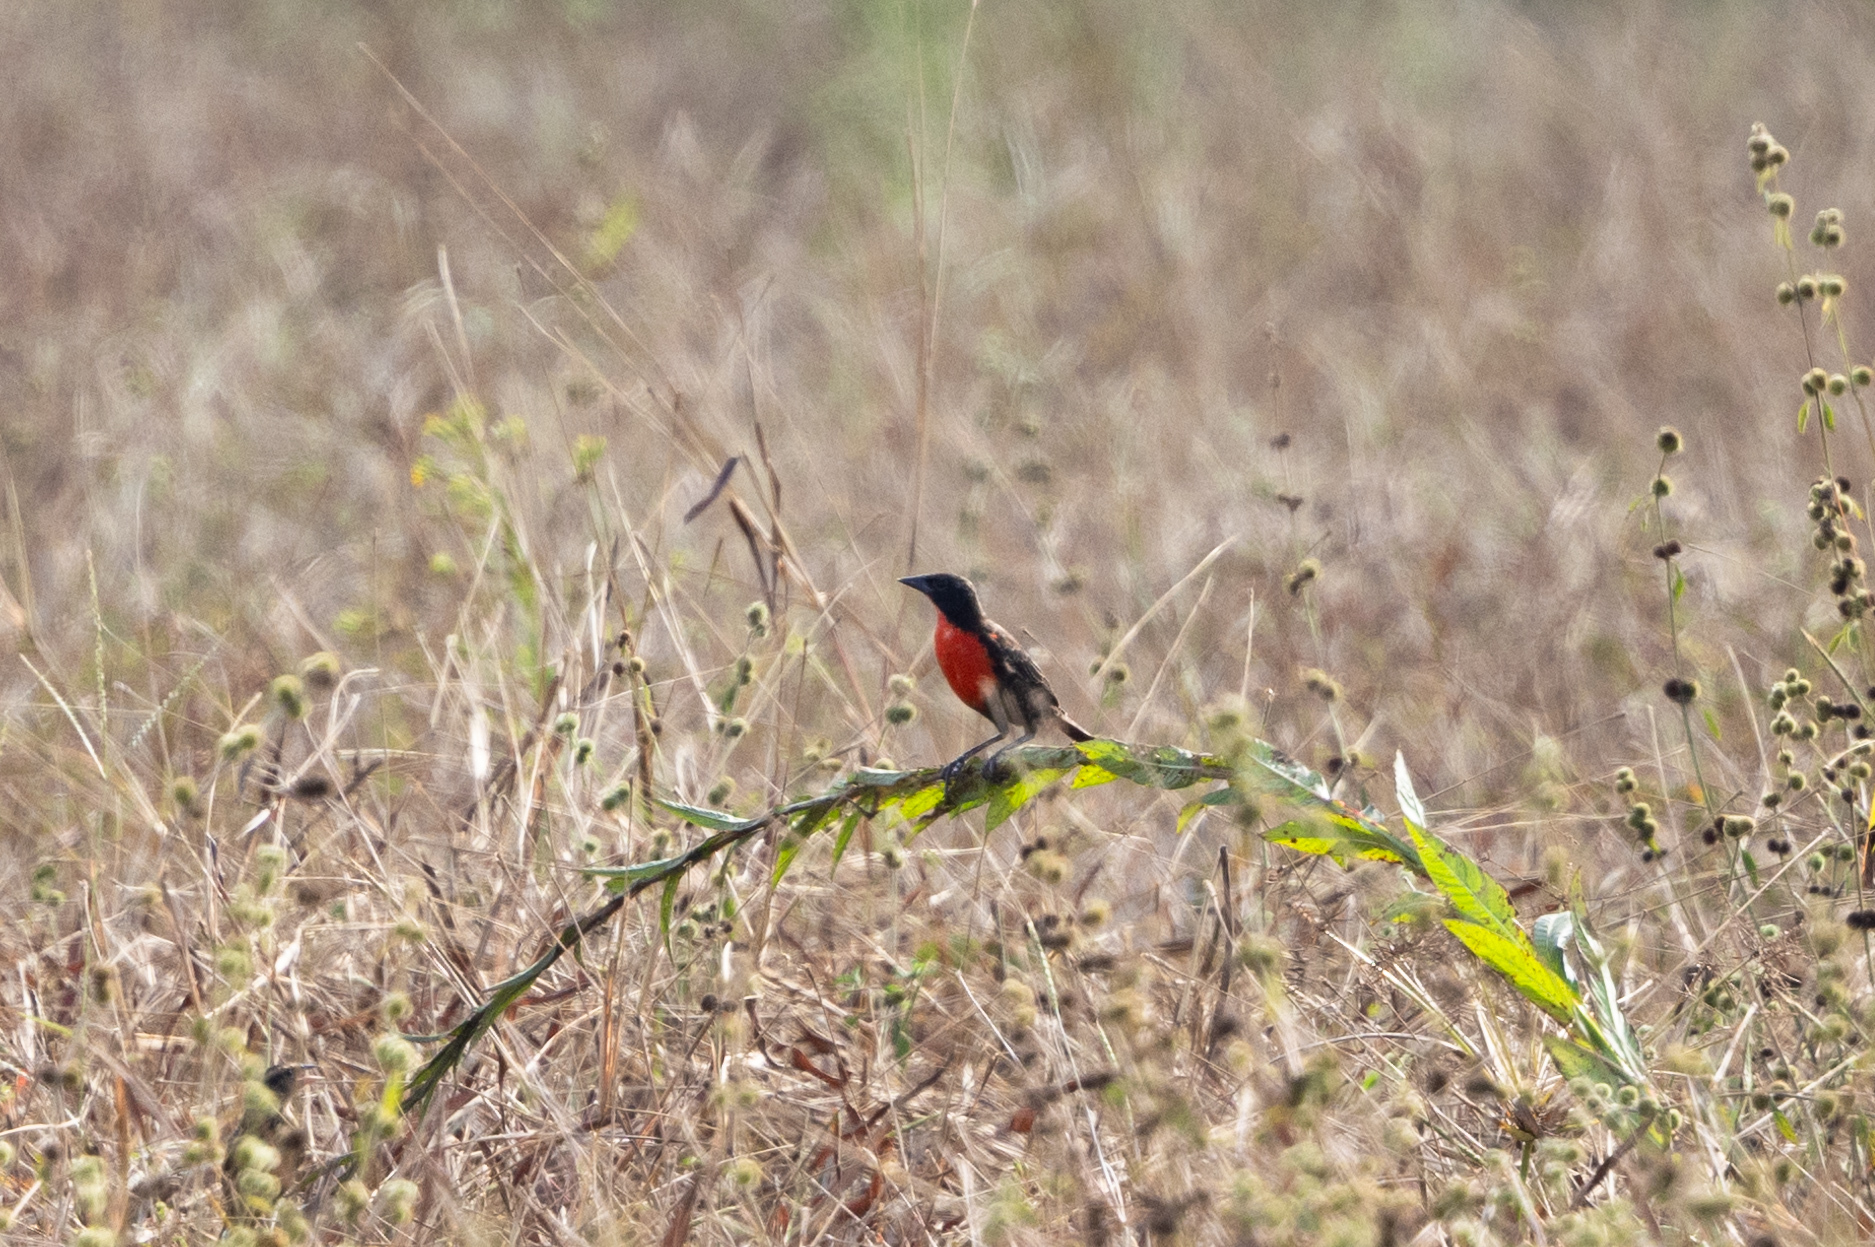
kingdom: Animalia
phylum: Chordata
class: Aves
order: Passeriformes
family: Icteridae
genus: Sturnella
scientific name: Sturnella militaris
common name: Red-breasted blackbird
